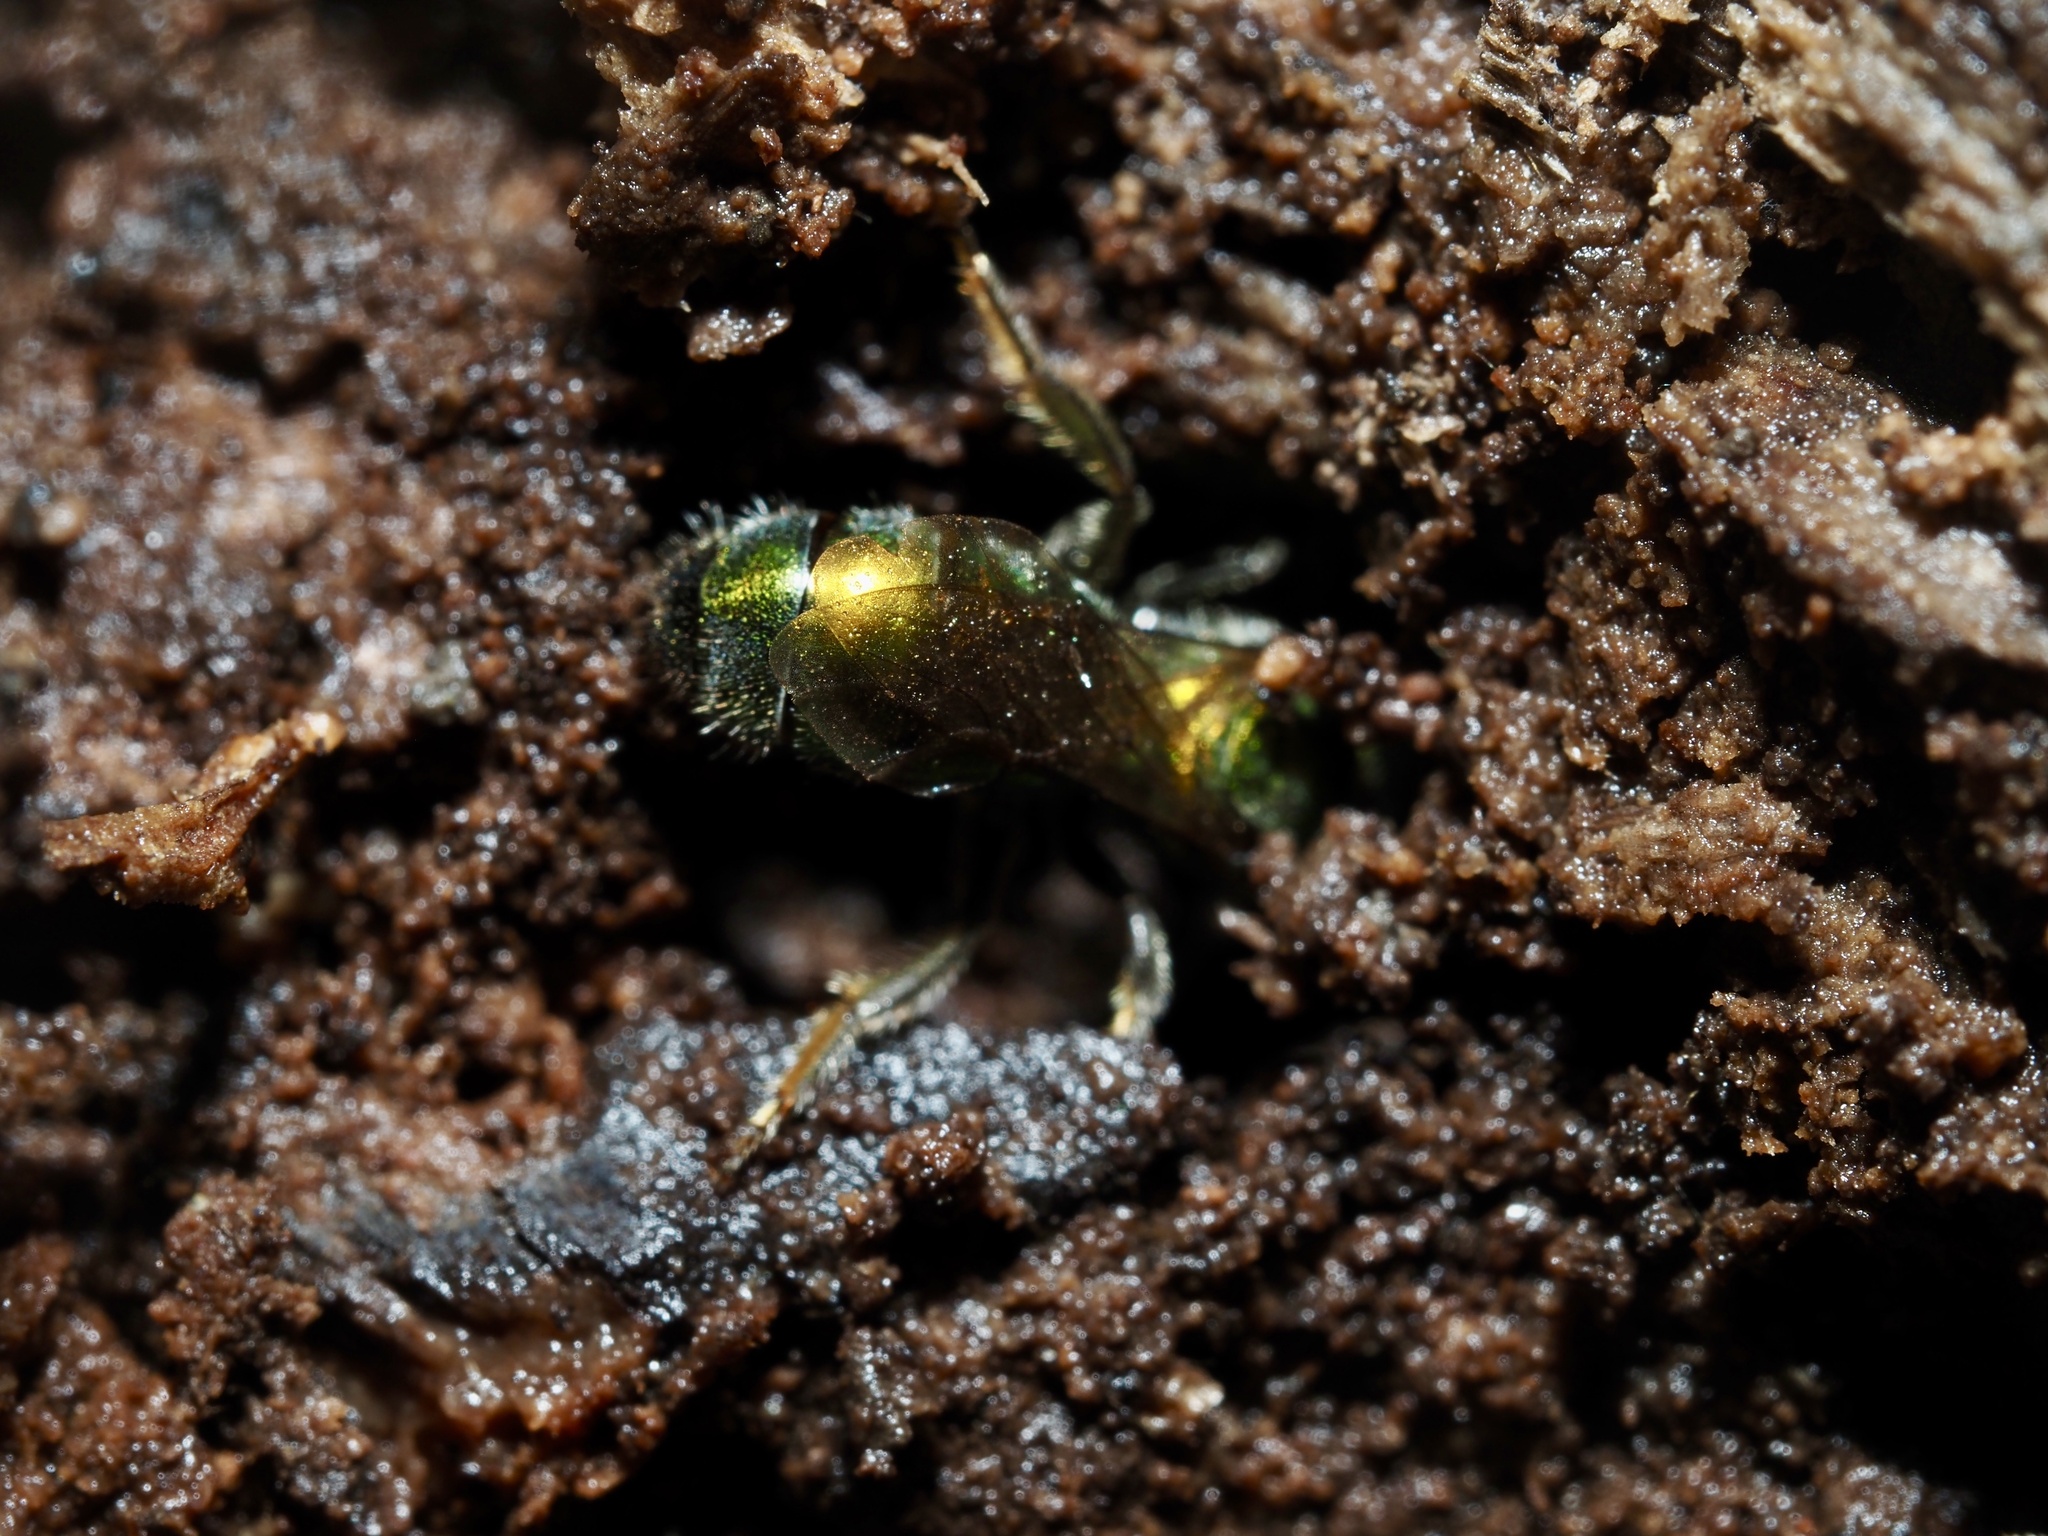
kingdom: Animalia
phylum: Arthropoda
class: Insecta
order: Hymenoptera
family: Halictidae
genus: Augochlora
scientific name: Augochlora pura
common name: Pure green sweat bee
